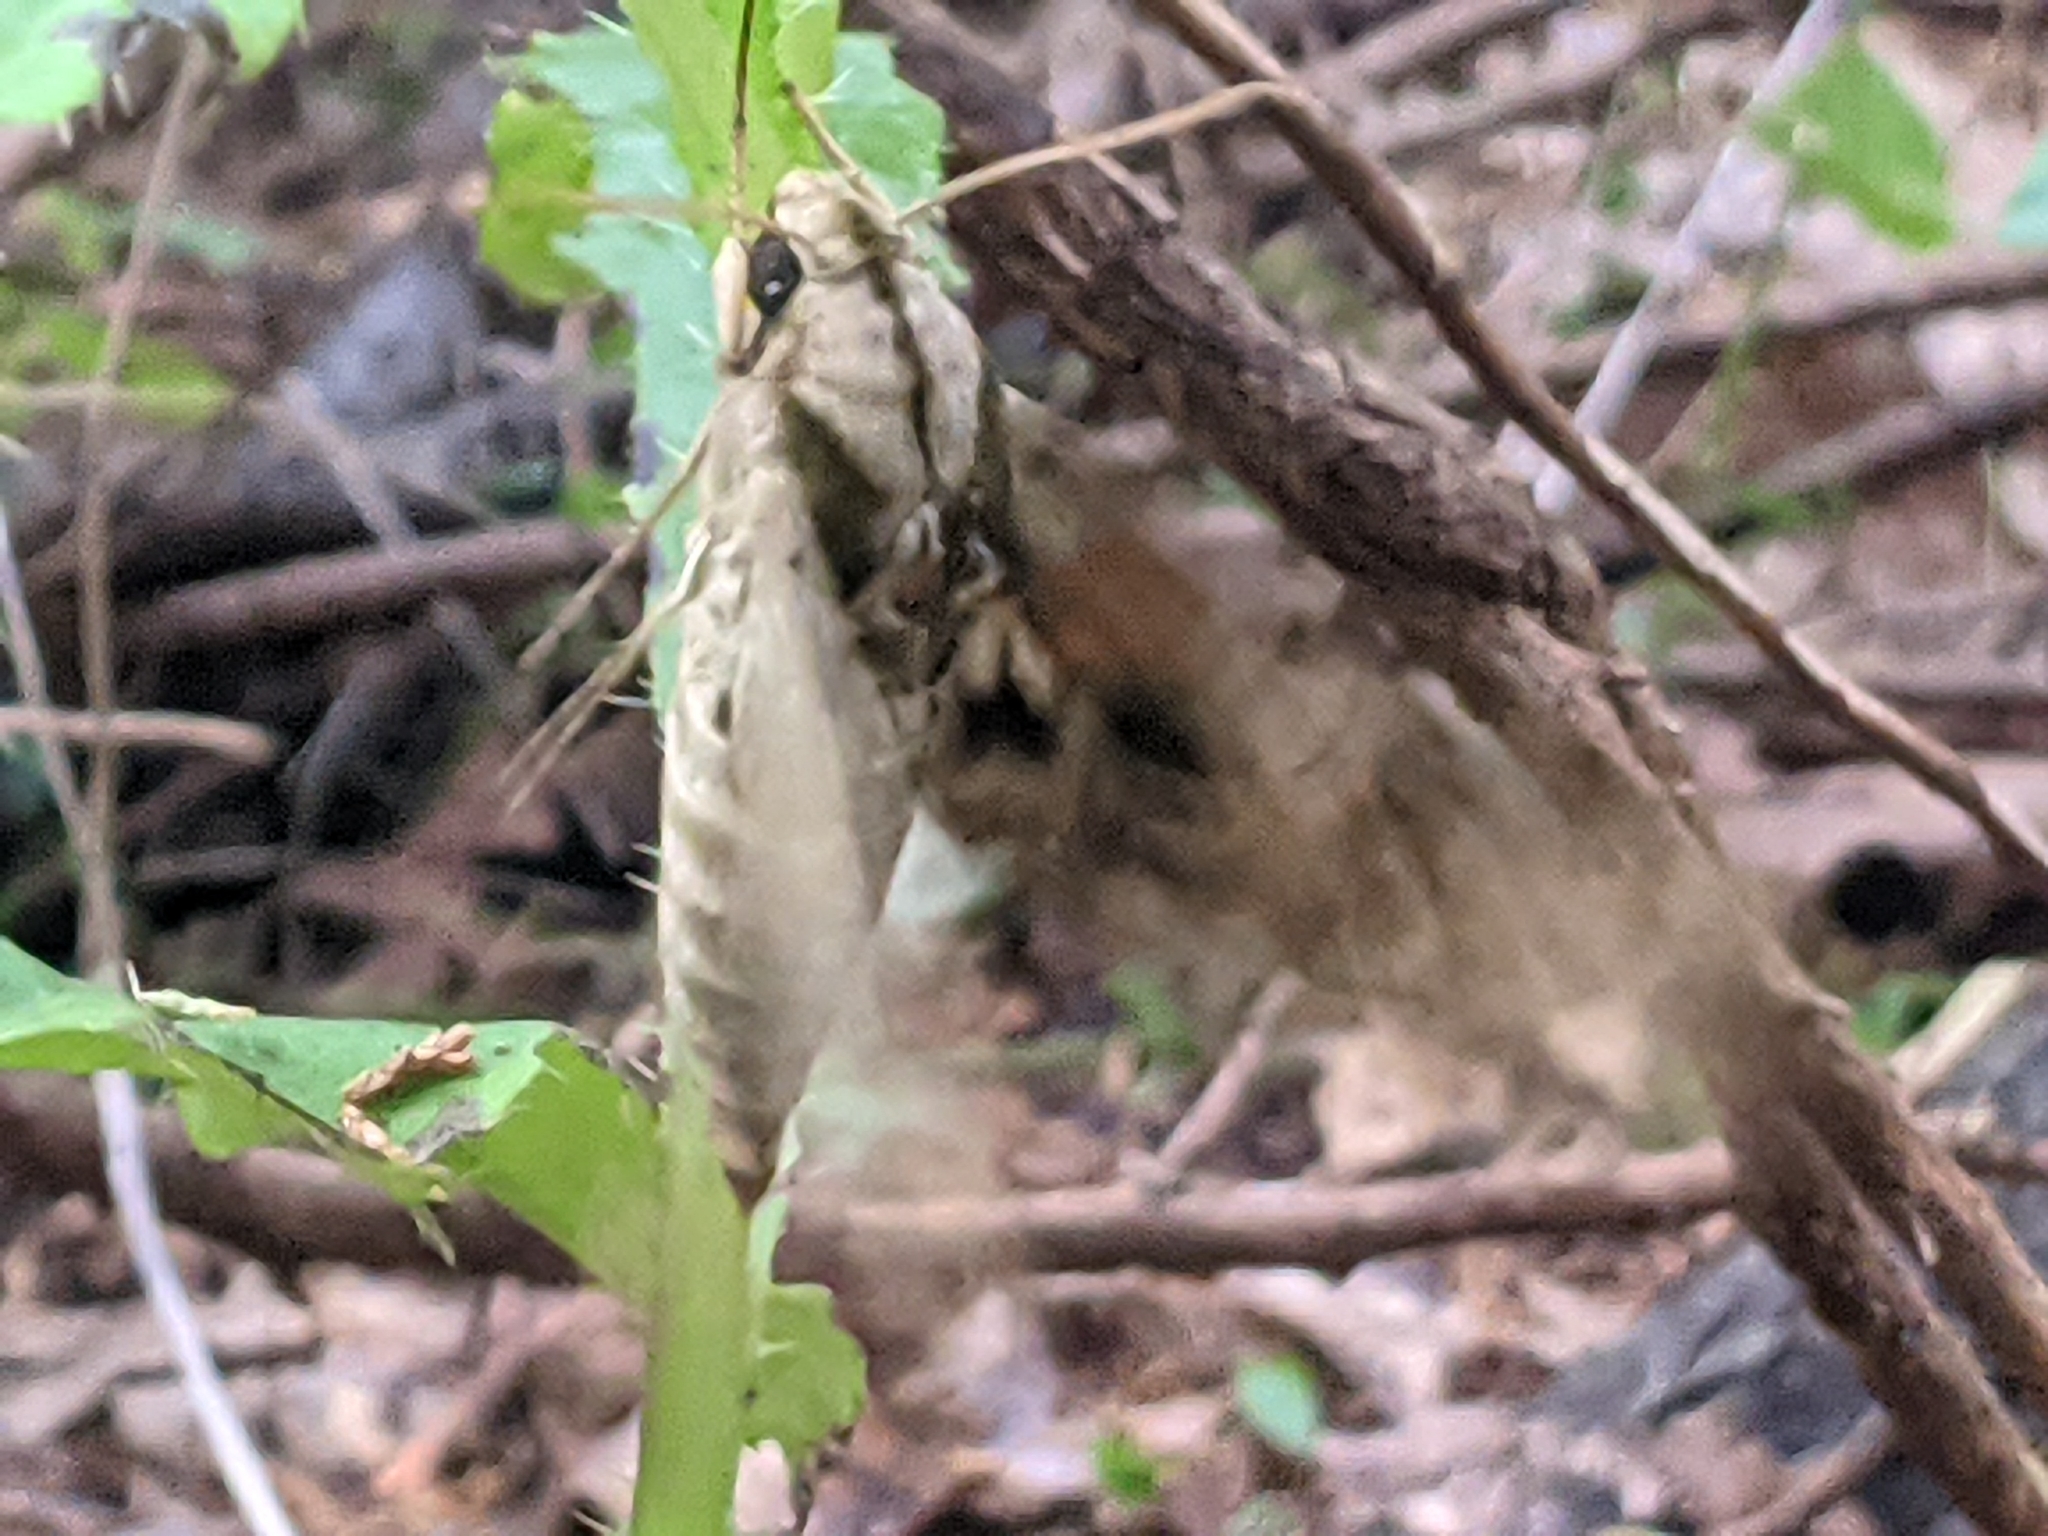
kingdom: Animalia
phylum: Arthropoda
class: Insecta
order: Lepidoptera
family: Sphingidae
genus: Eumorpha
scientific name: Eumorpha pandorus
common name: Pandora sphinx
